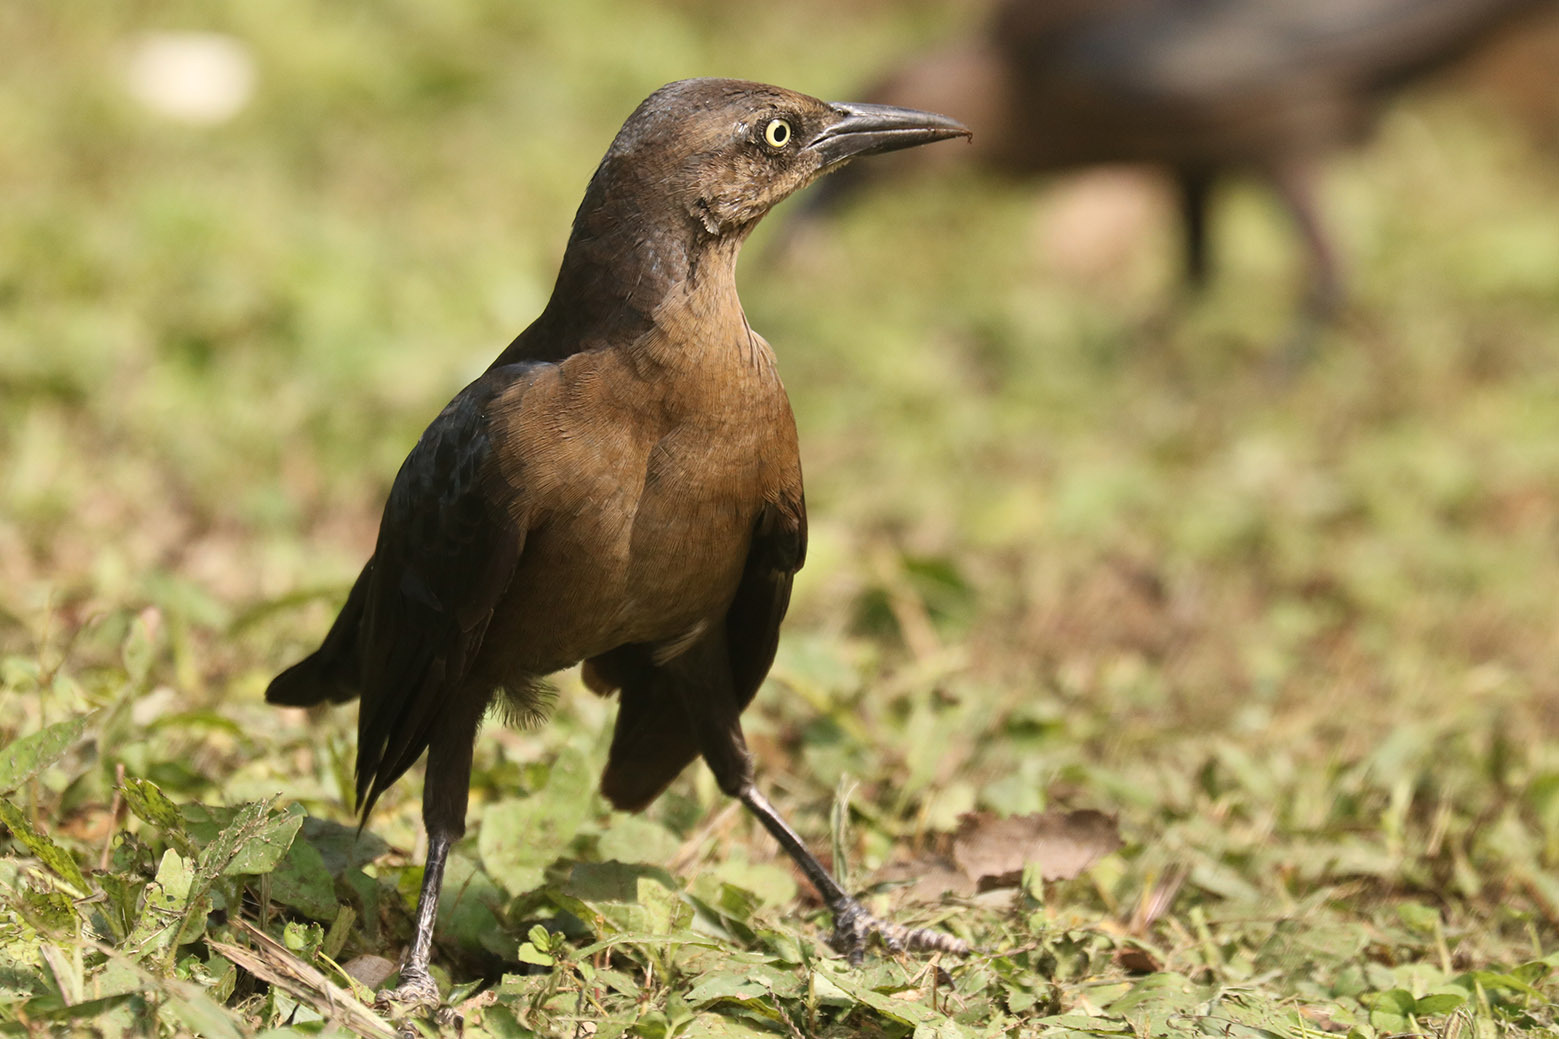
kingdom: Animalia
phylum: Chordata
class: Aves
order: Passeriformes
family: Icteridae
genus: Quiscalus
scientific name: Quiscalus mexicanus
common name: Great-tailed grackle
